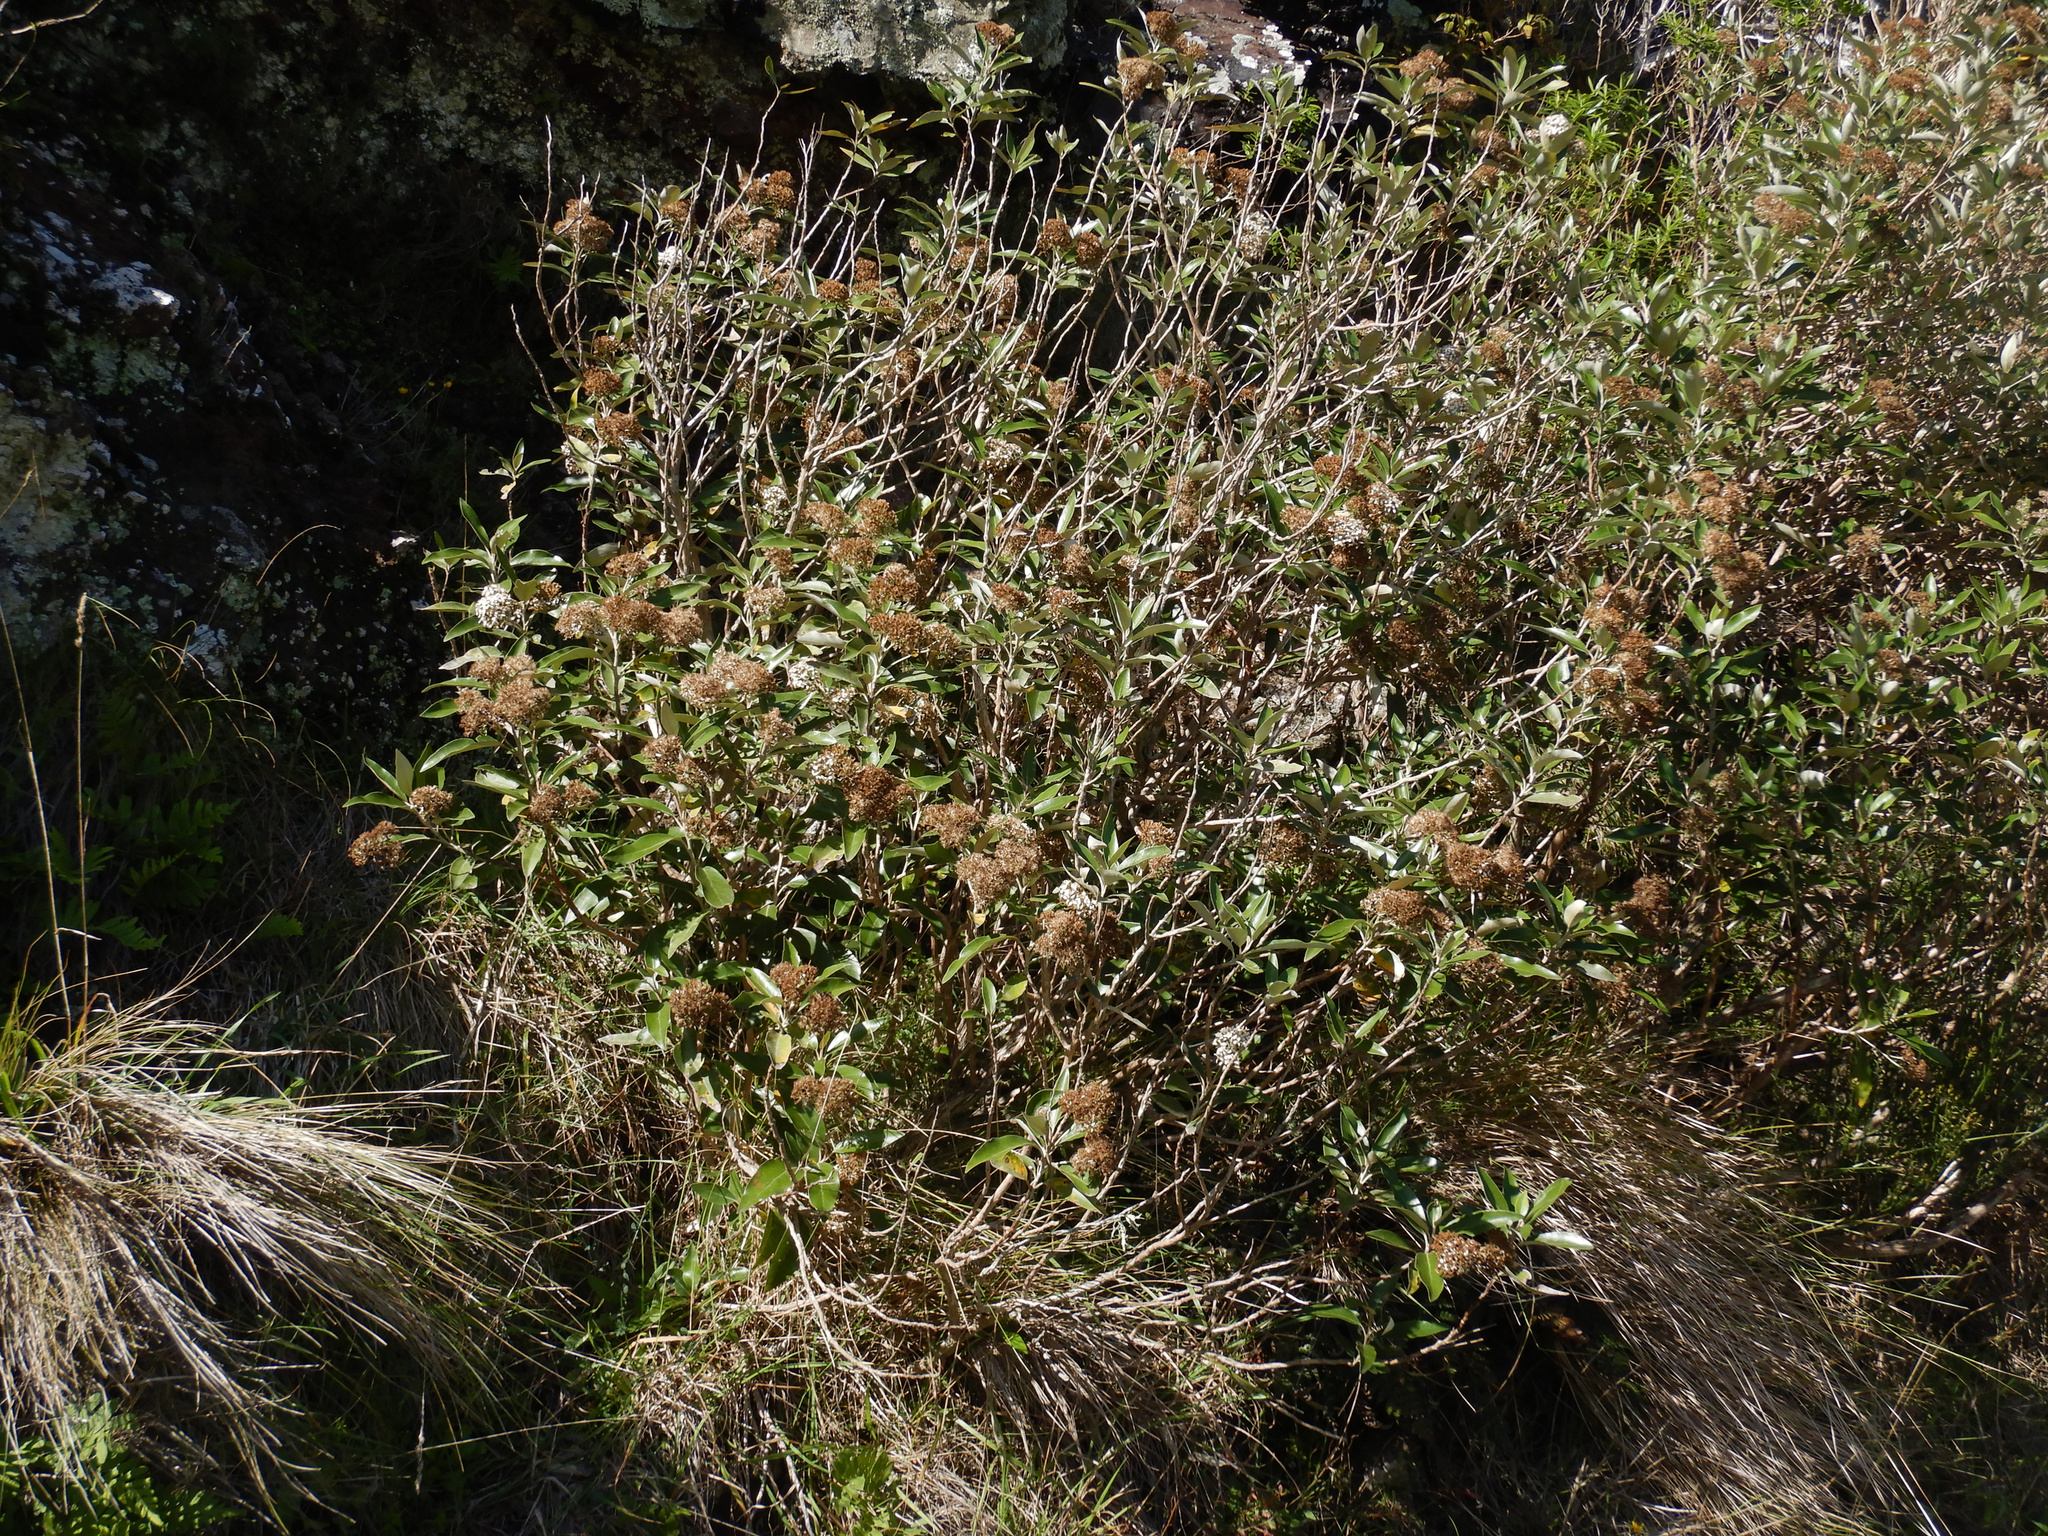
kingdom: Plantae
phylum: Tracheophyta
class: Magnoliopsida
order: Asterales
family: Asteraceae
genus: Olearia
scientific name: Olearia avicenniifolia
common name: Mangrove-leaf daisybush
